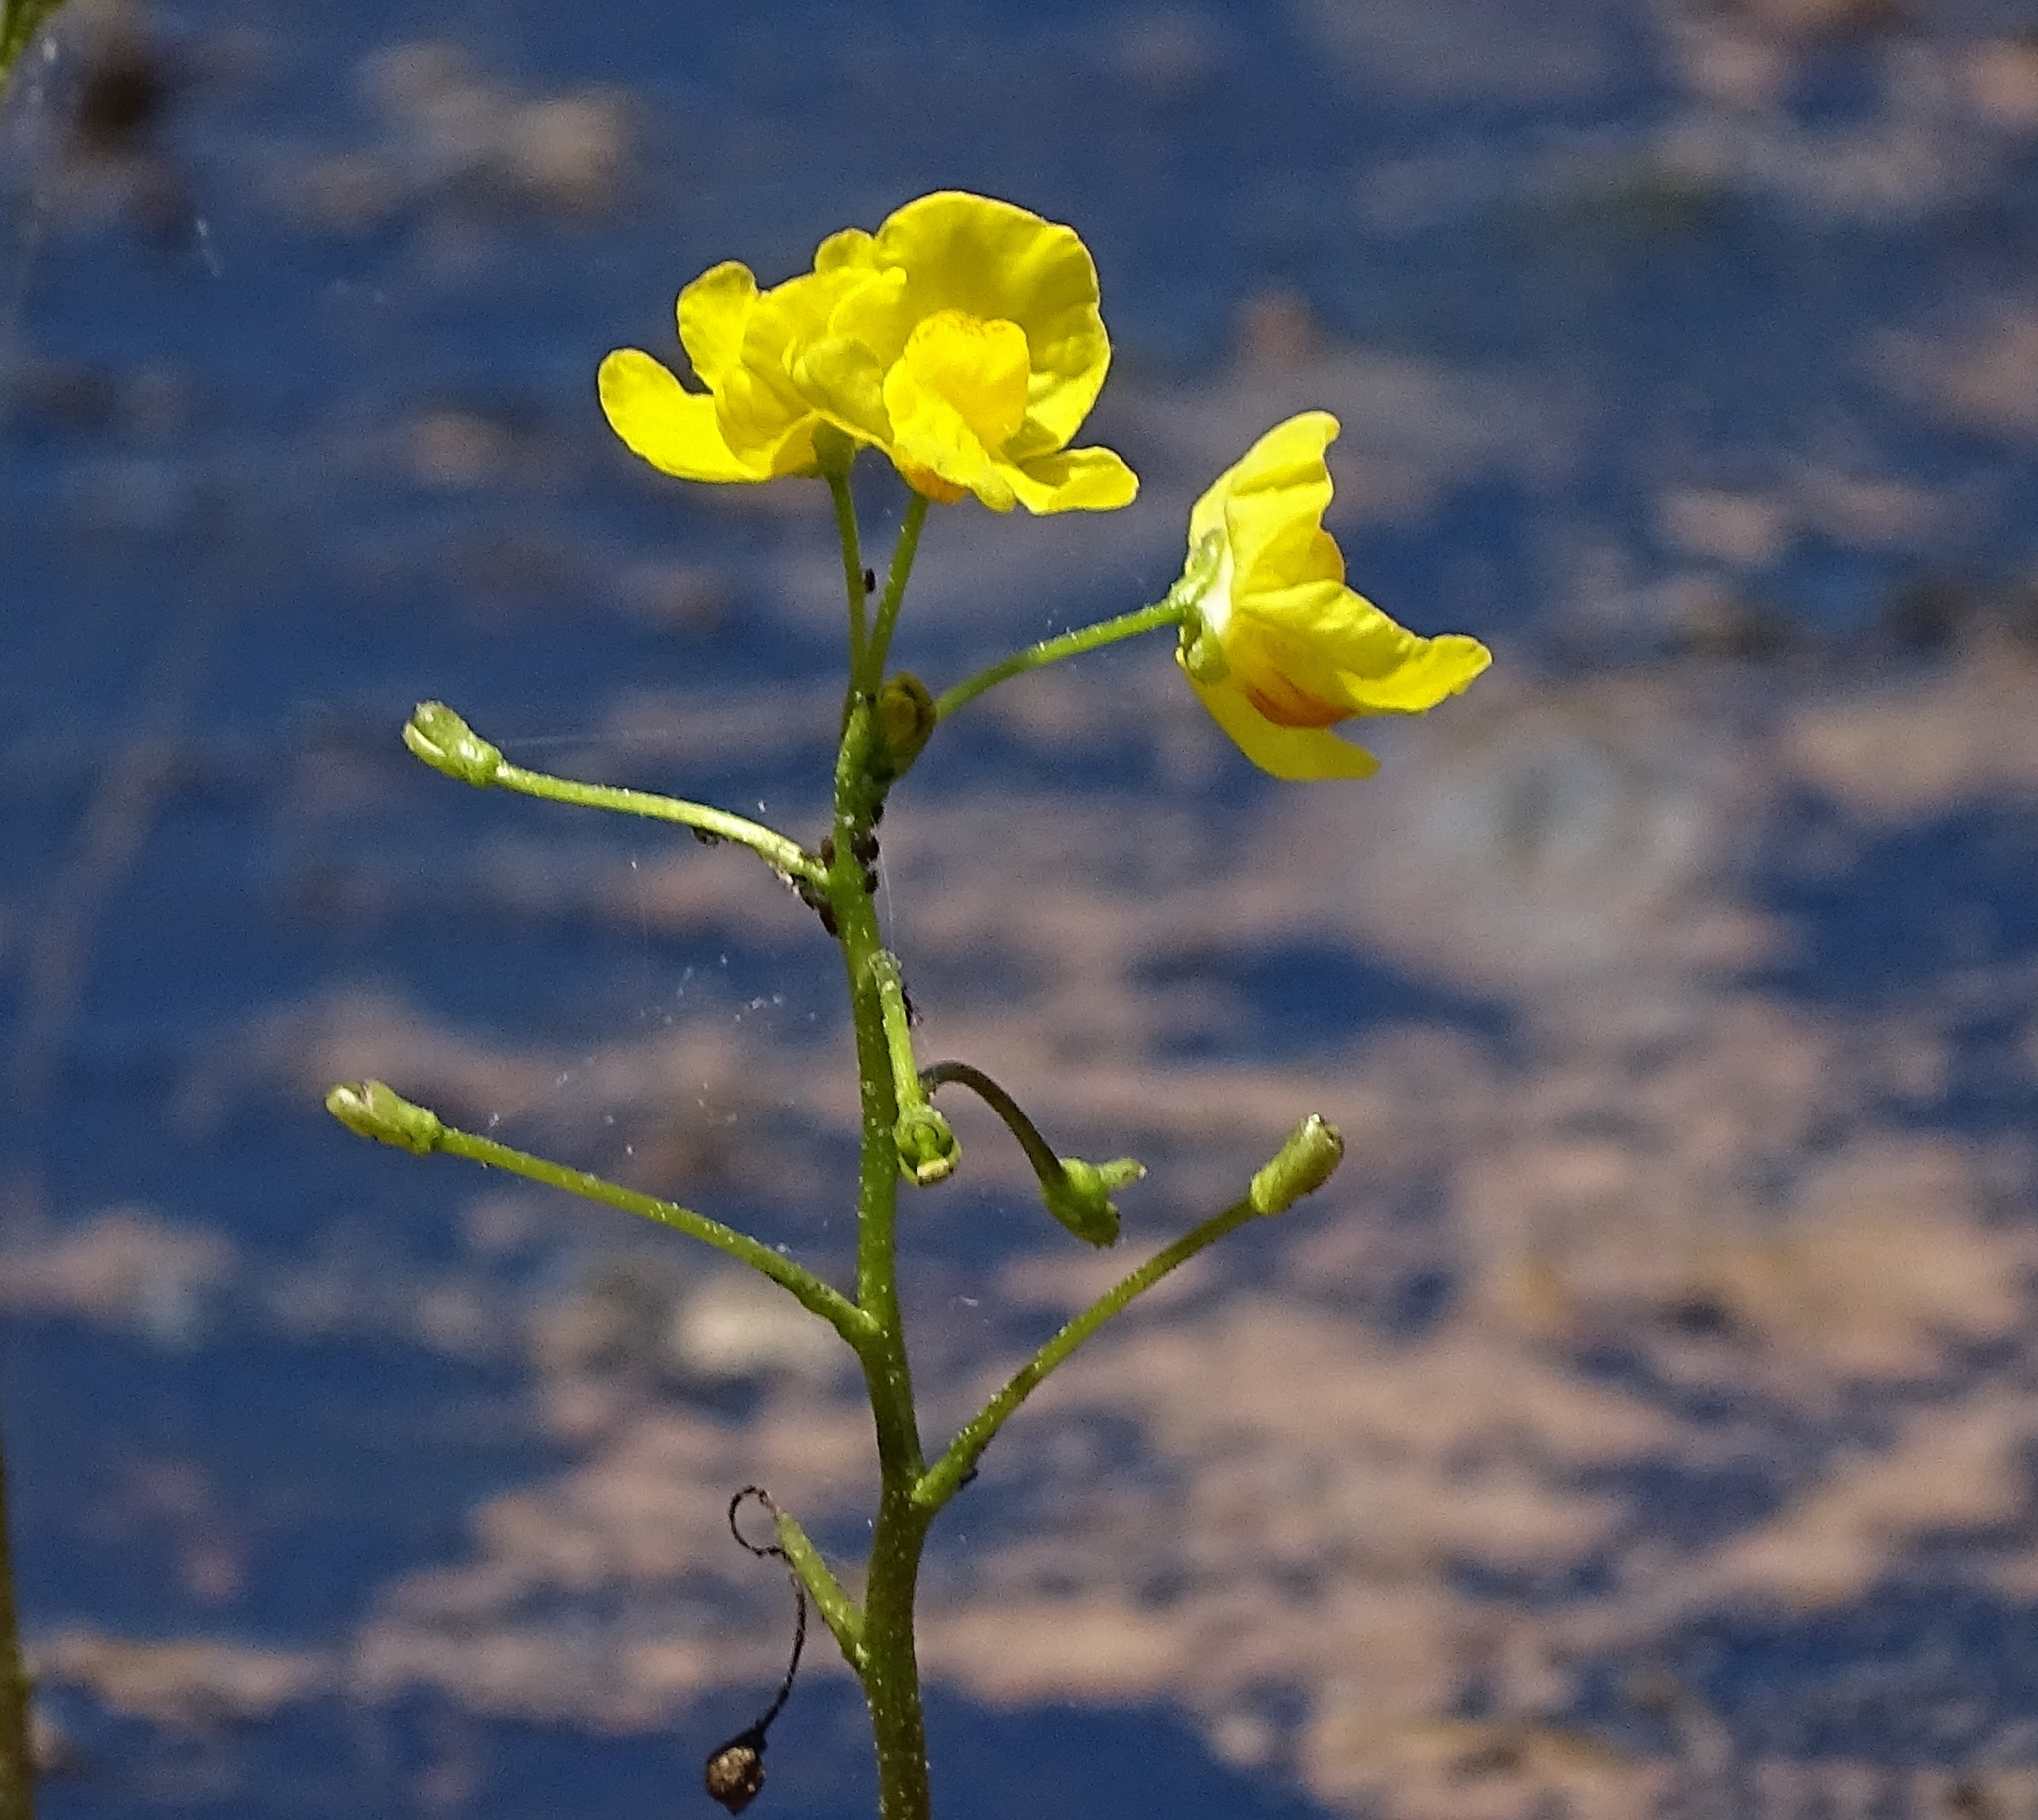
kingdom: Plantae
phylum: Tracheophyta
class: Magnoliopsida
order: Lamiales
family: Lentibulariaceae
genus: Utricularia
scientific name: Utricularia inflata
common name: Floating bladderwort
